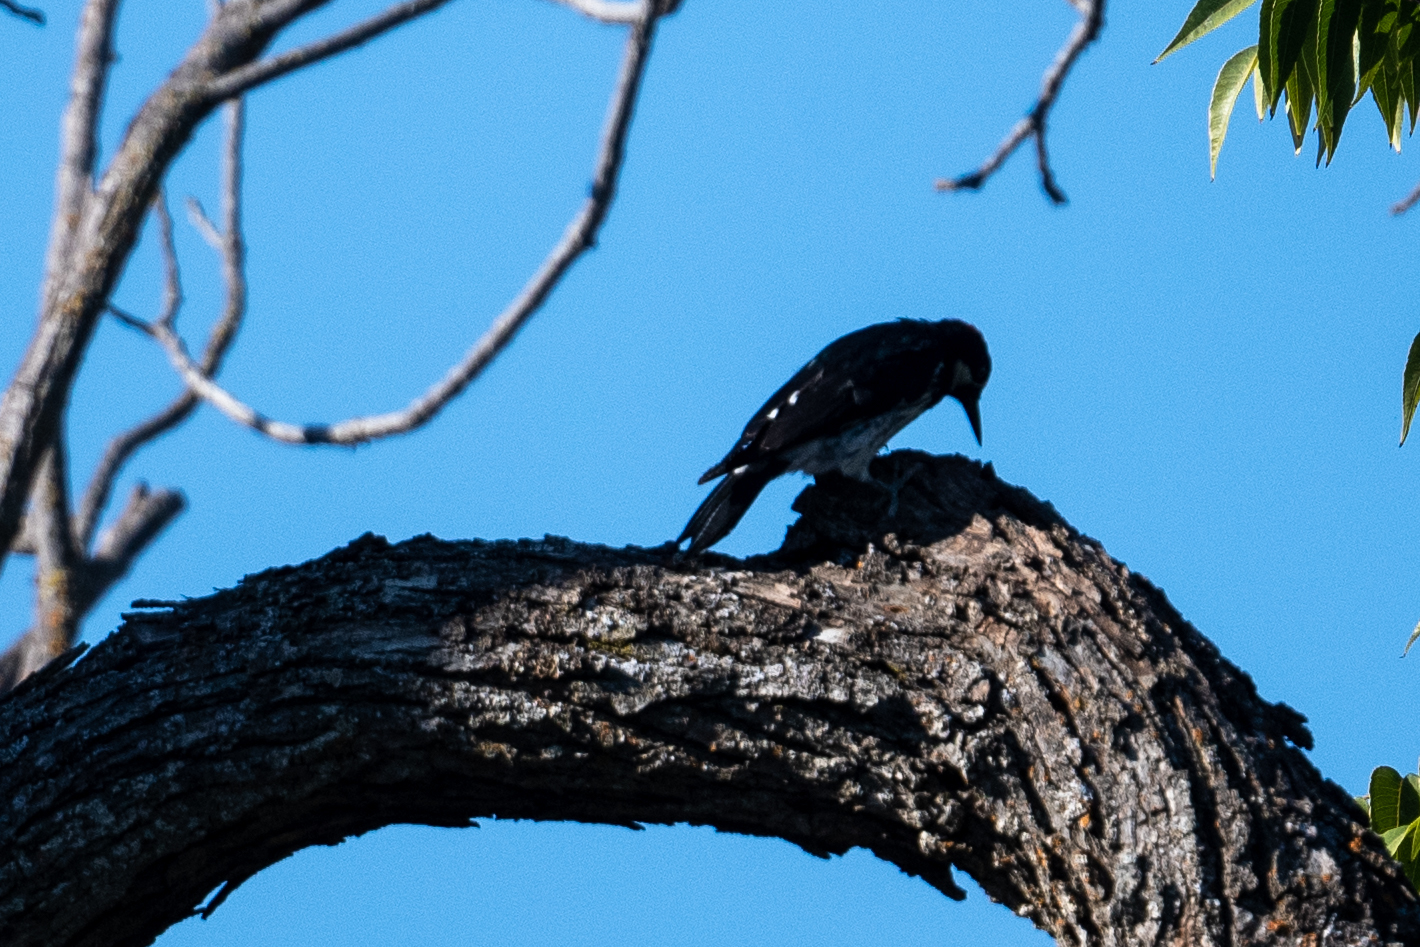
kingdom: Animalia
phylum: Chordata
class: Aves
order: Piciformes
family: Picidae
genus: Melanerpes
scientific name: Melanerpes formicivorus
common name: Acorn woodpecker
